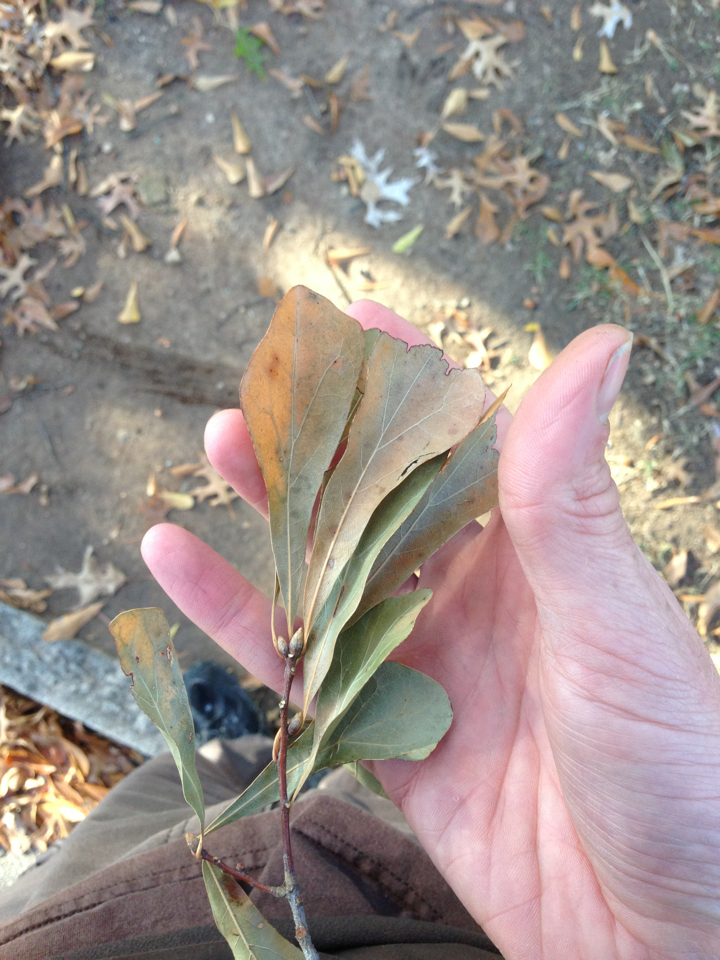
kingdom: Plantae
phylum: Tracheophyta
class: Magnoliopsida
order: Fagales
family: Fagaceae
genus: Quercus
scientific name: Quercus nigra
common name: Water oak
